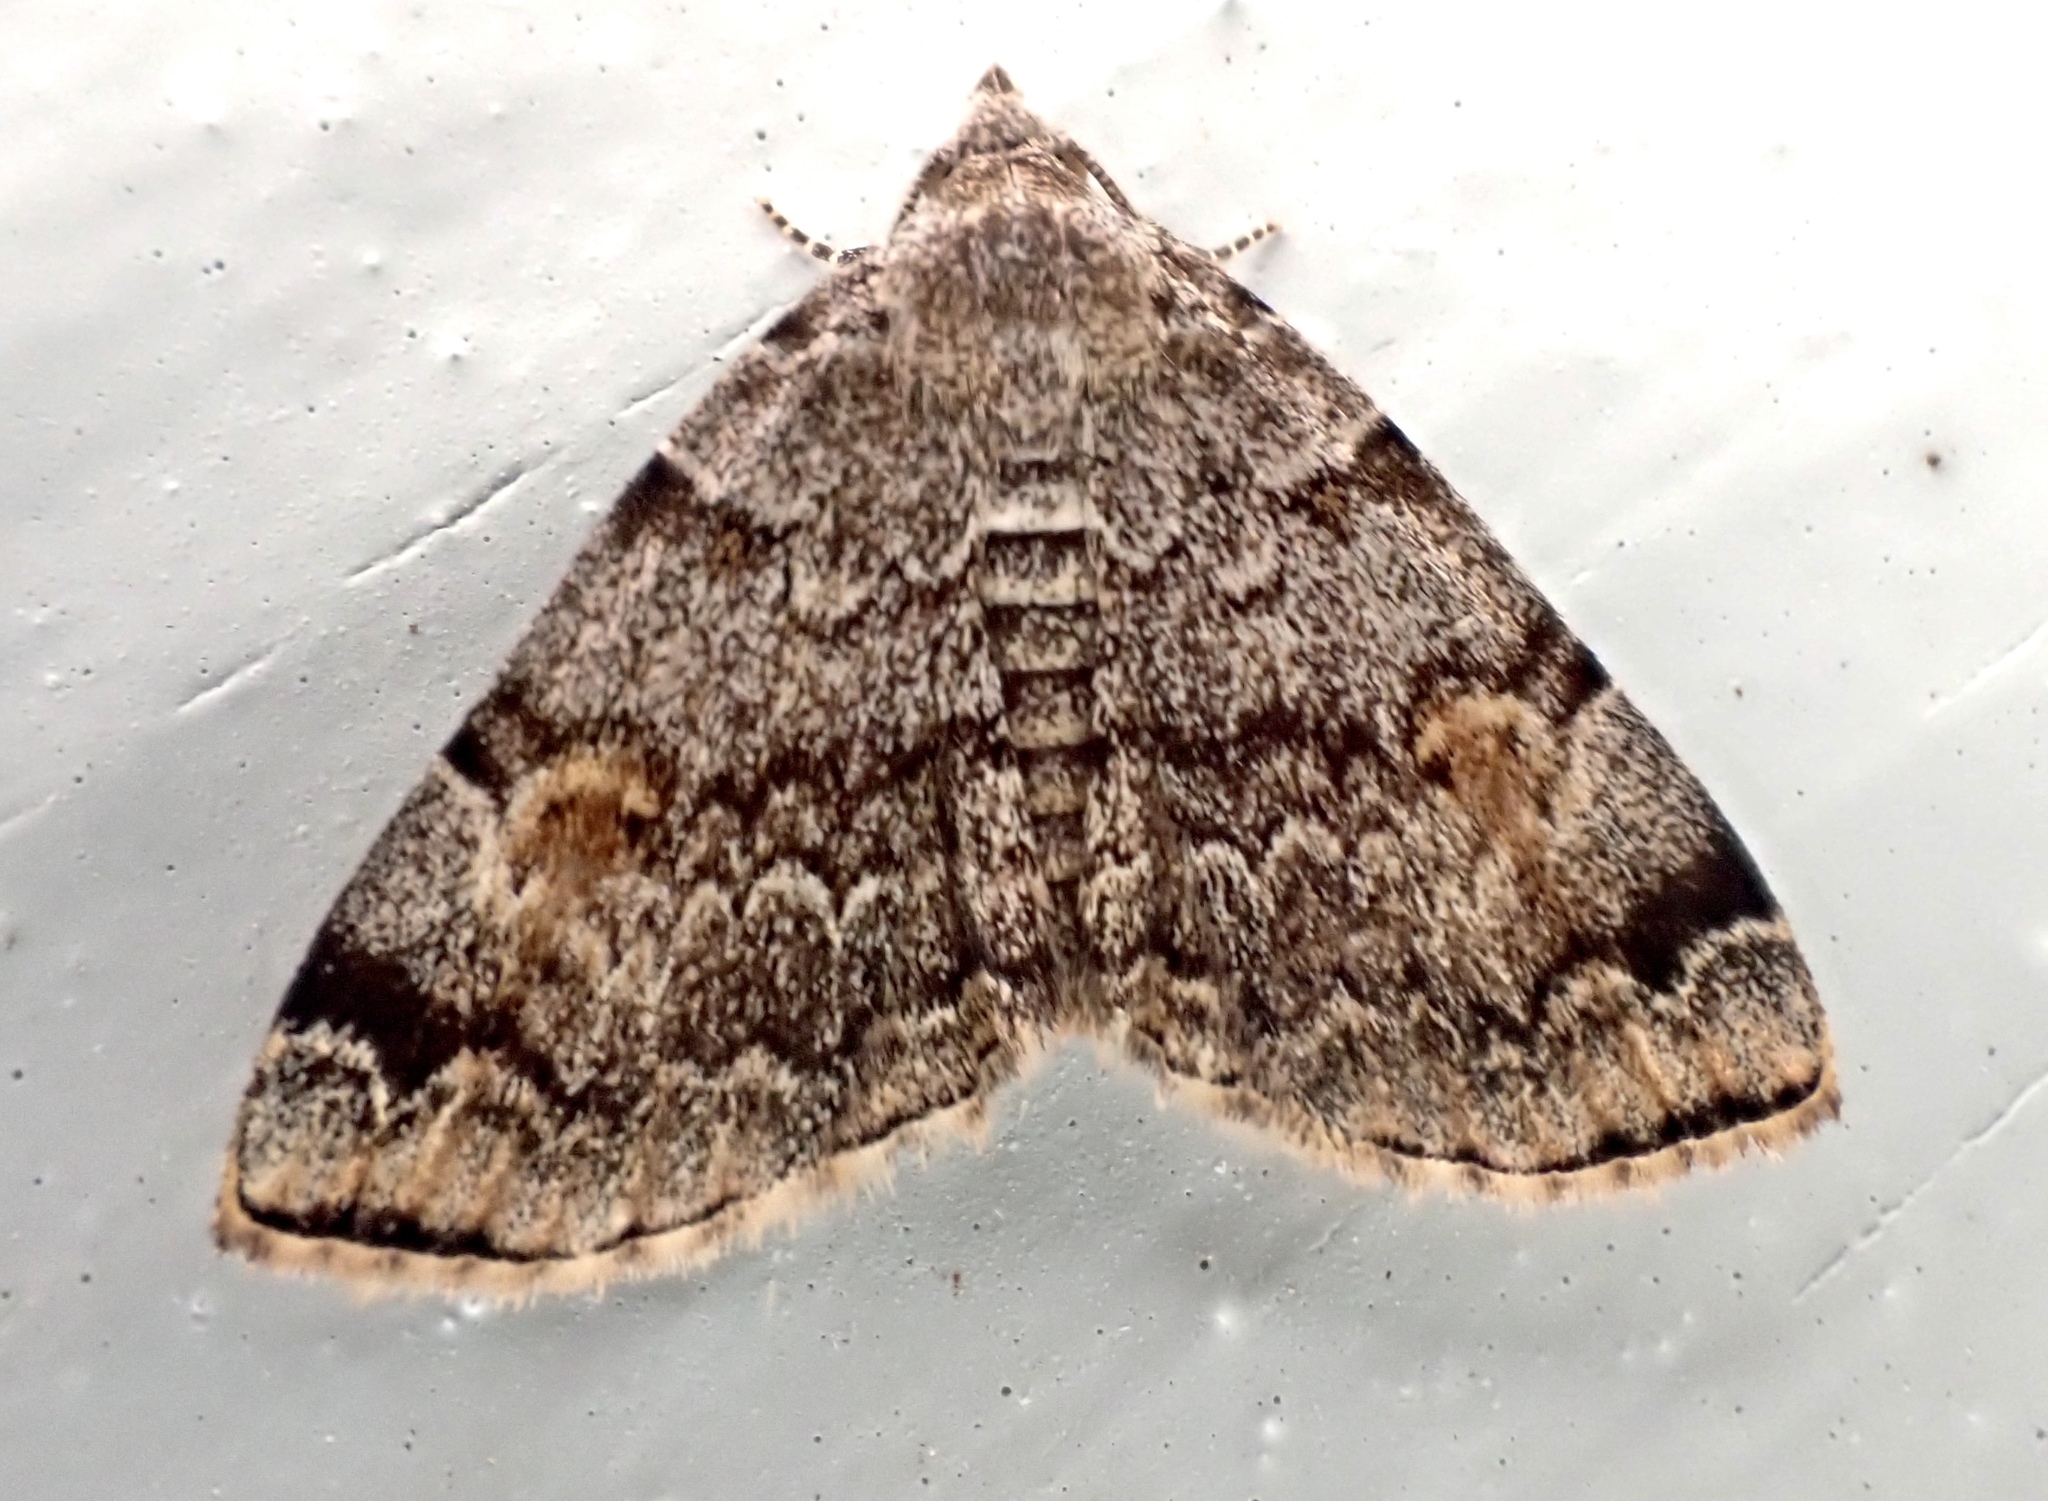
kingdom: Animalia
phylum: Arthropoda
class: Insecta
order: Lepidoptera
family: Erebidae
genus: Idia
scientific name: Idia americalis
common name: American idia moth
